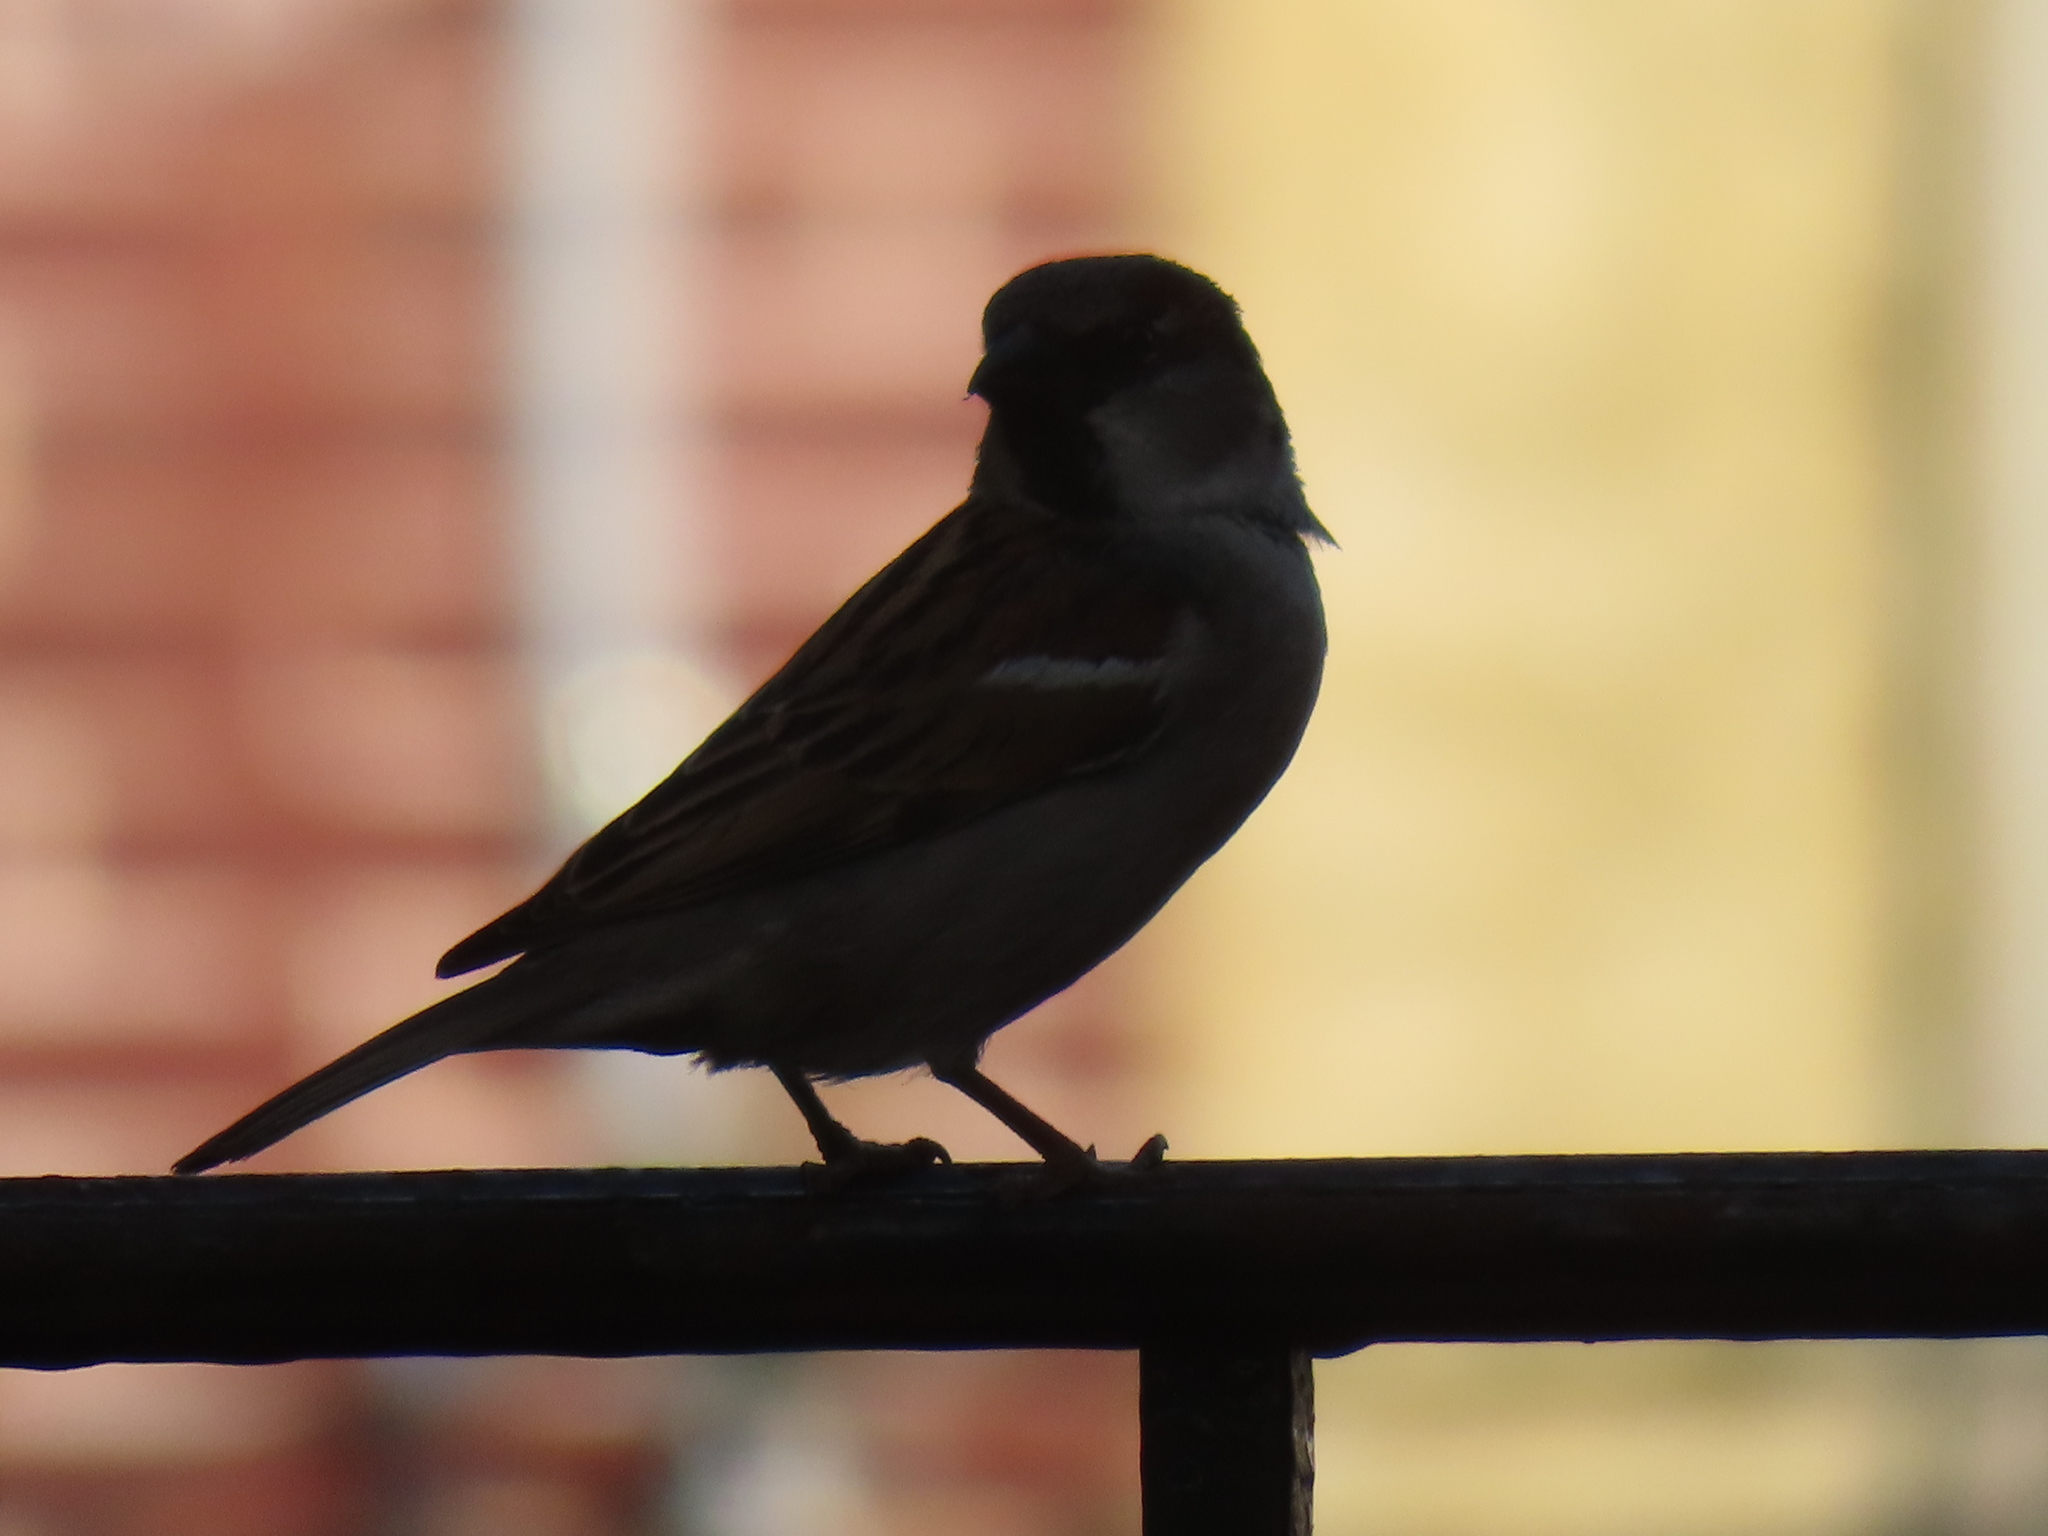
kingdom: Animalia
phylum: Chordata
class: Aves
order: Passeriformes
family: Passeridae
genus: Passer
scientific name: Passer domesticus
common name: House sparrow
